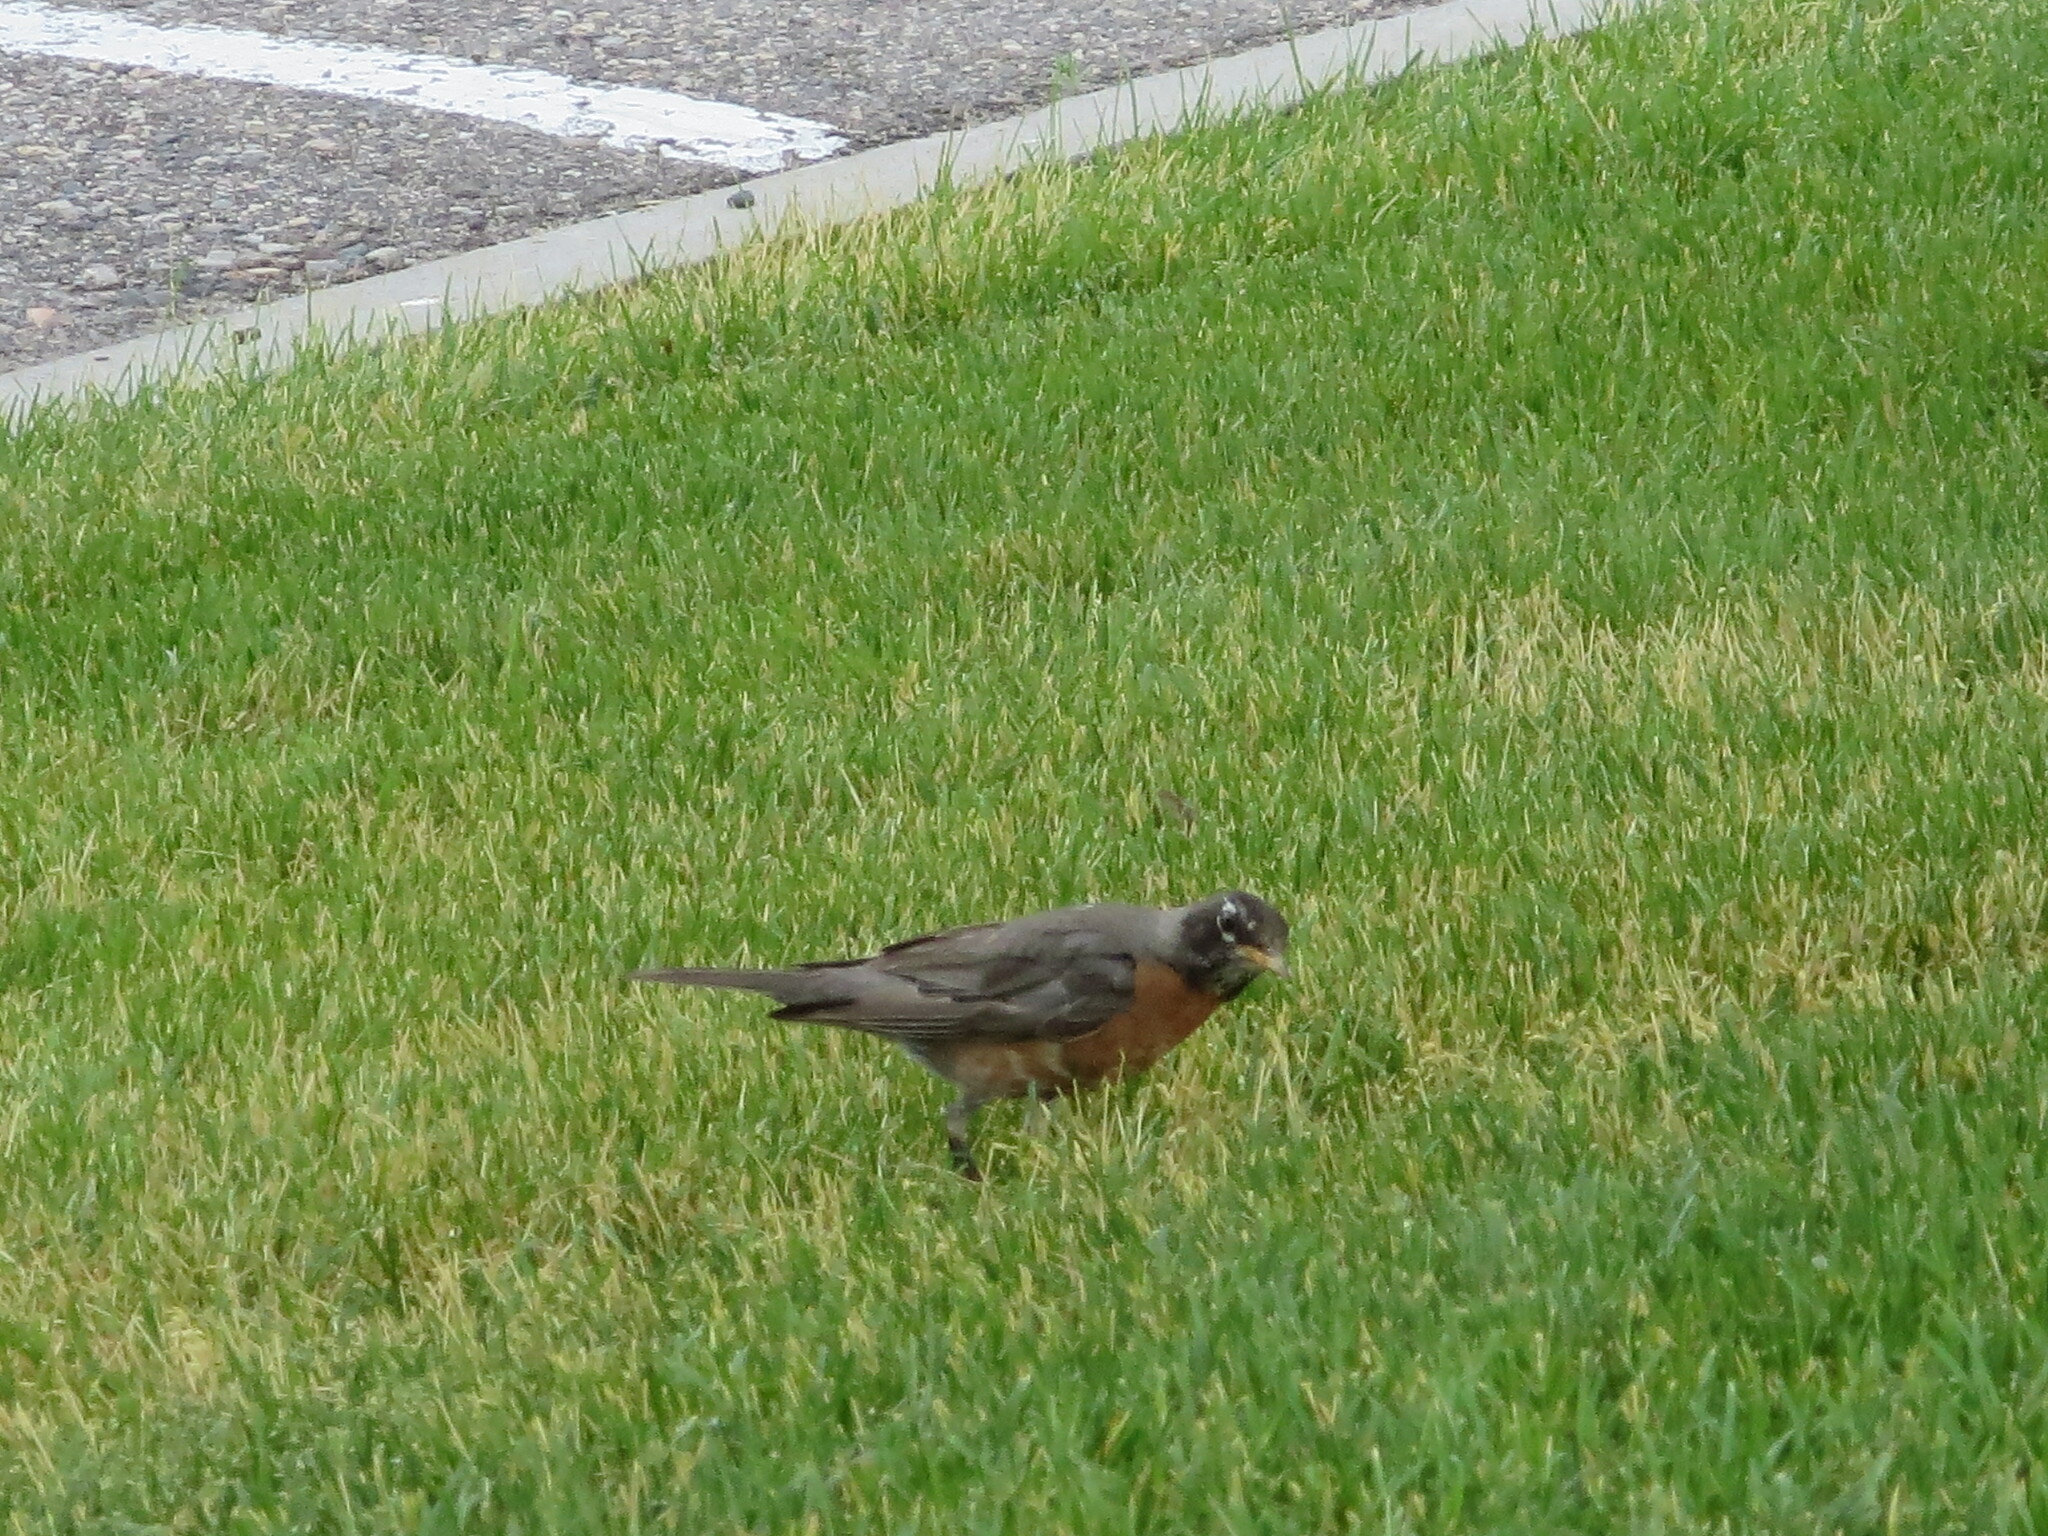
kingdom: Animalia
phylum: Chordata
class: Aves
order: Passeriformes
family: Turdidae
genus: Turdus
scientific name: Turdus migratorius
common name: American robin
